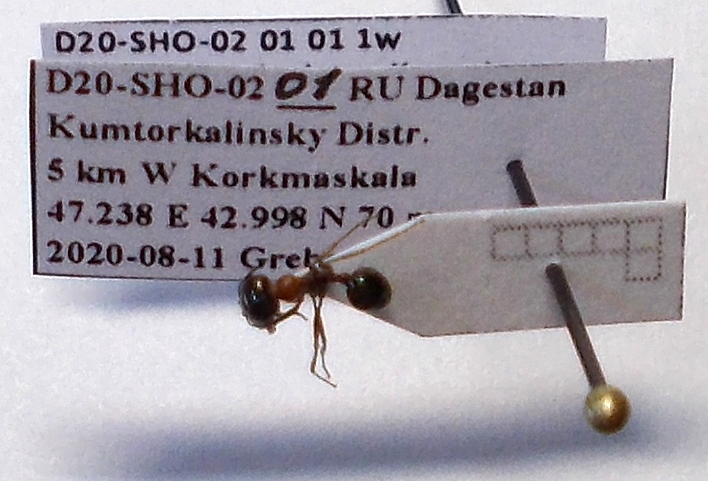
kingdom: Animalia
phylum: Arthropoda
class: Insecta
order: Hymenoptera
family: Formicidae
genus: Messor
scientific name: Messor denticulatus
